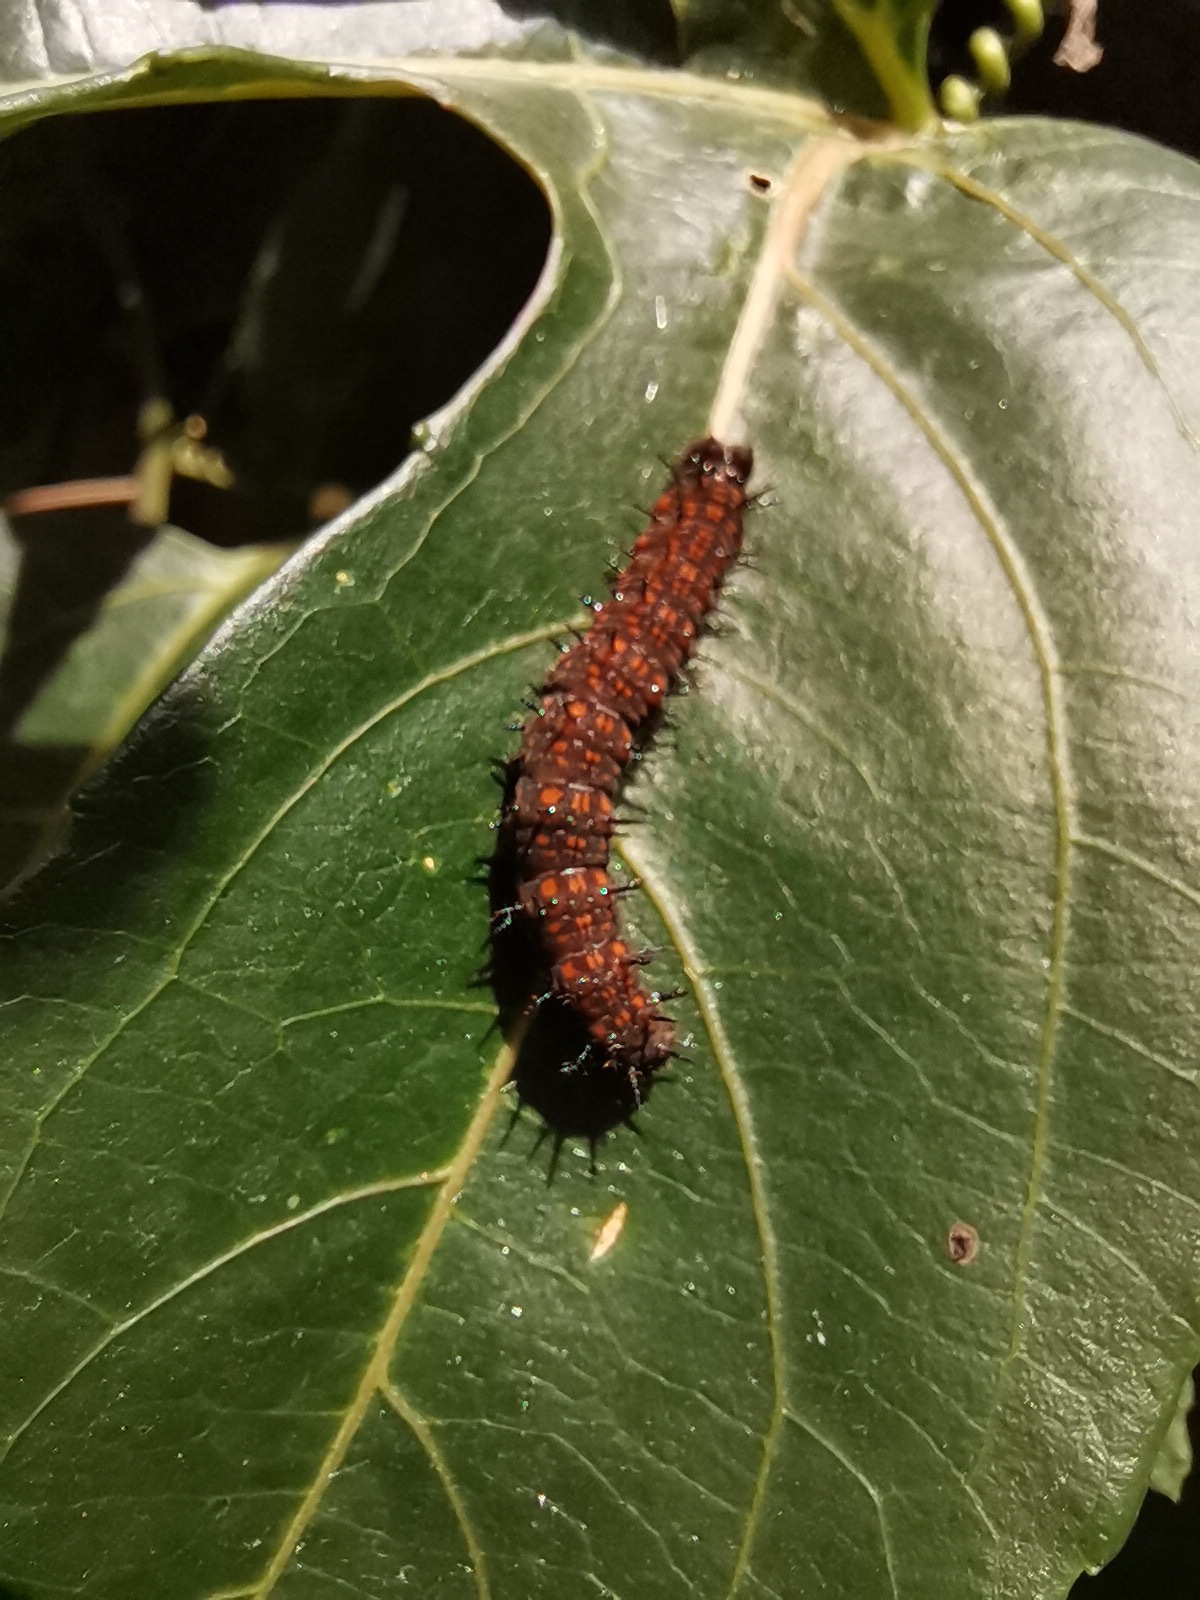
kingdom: Animalia
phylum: Arthropoda
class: Insecta
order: Lepidoptera
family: Nymphalidae
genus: Dione
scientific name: Dione juno
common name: Juno silverspot
